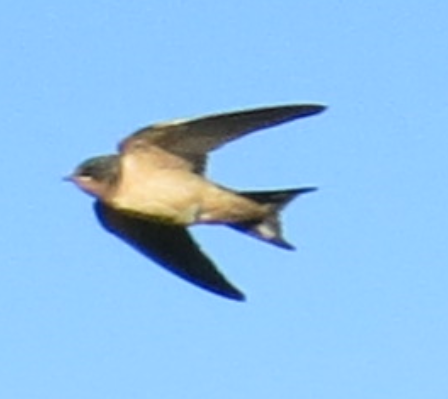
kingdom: Animalia
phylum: Chordata
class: Aves
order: Passeriformes
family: Hirundinidae
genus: Hirundo
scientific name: Hirundo rustica
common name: Barn swallow
